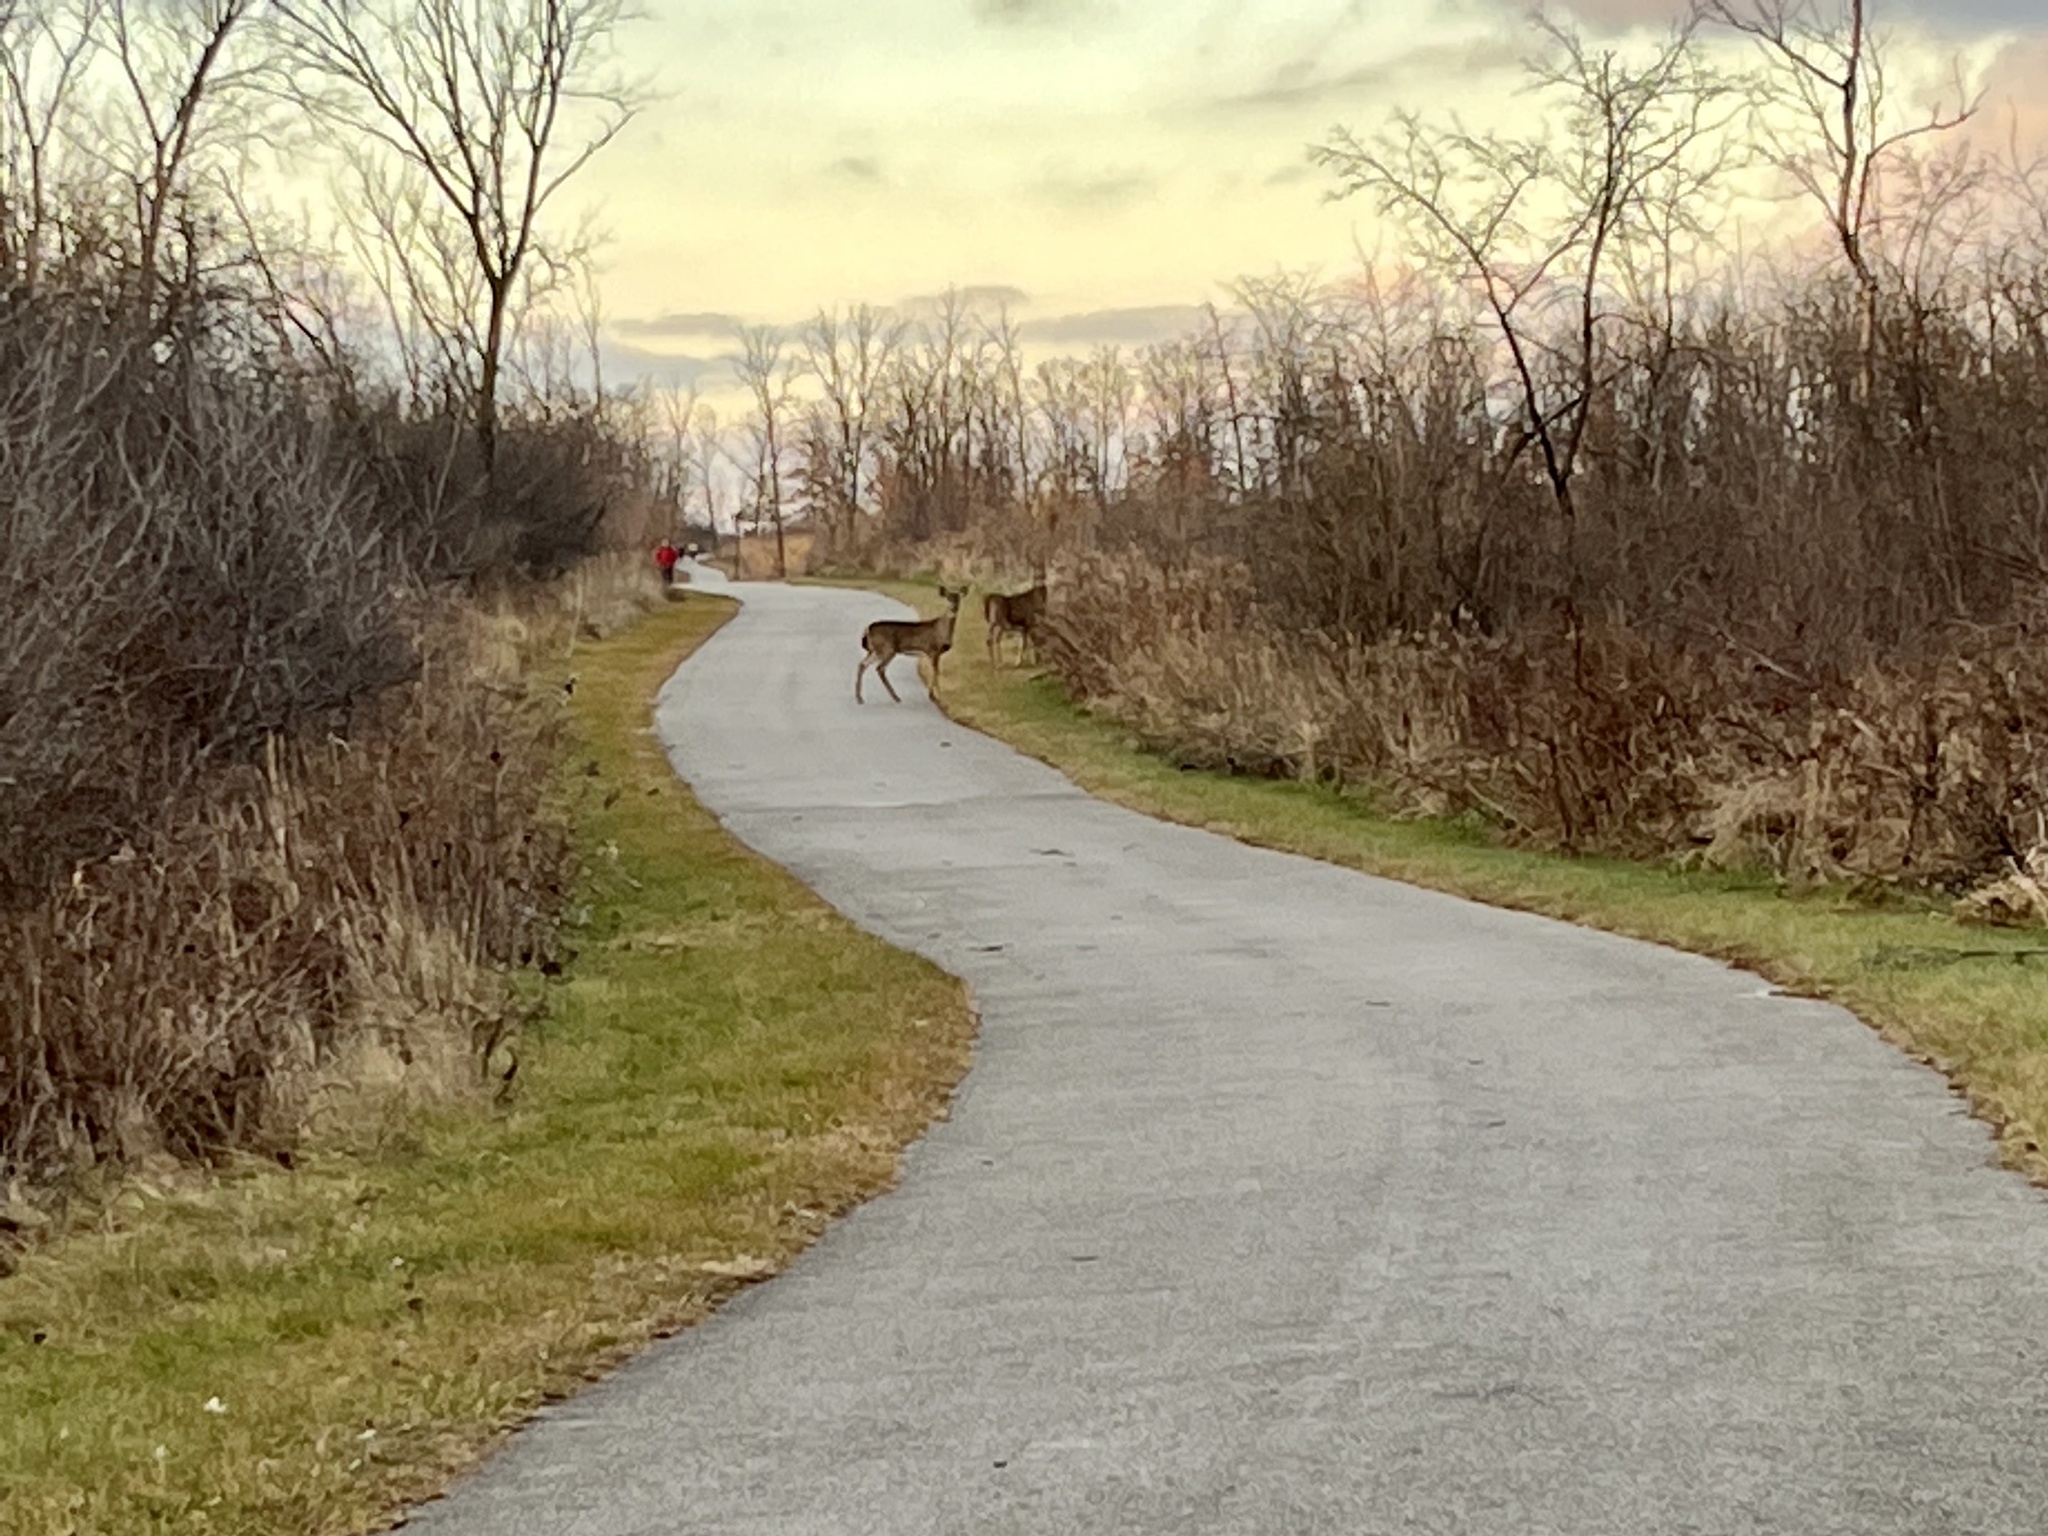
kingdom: Animalia
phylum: Chordata
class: Mammalia
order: Artiodactyla
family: Cervidae
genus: Odocoileus
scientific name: Odocoileus virginianus
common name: White-tailed deer
